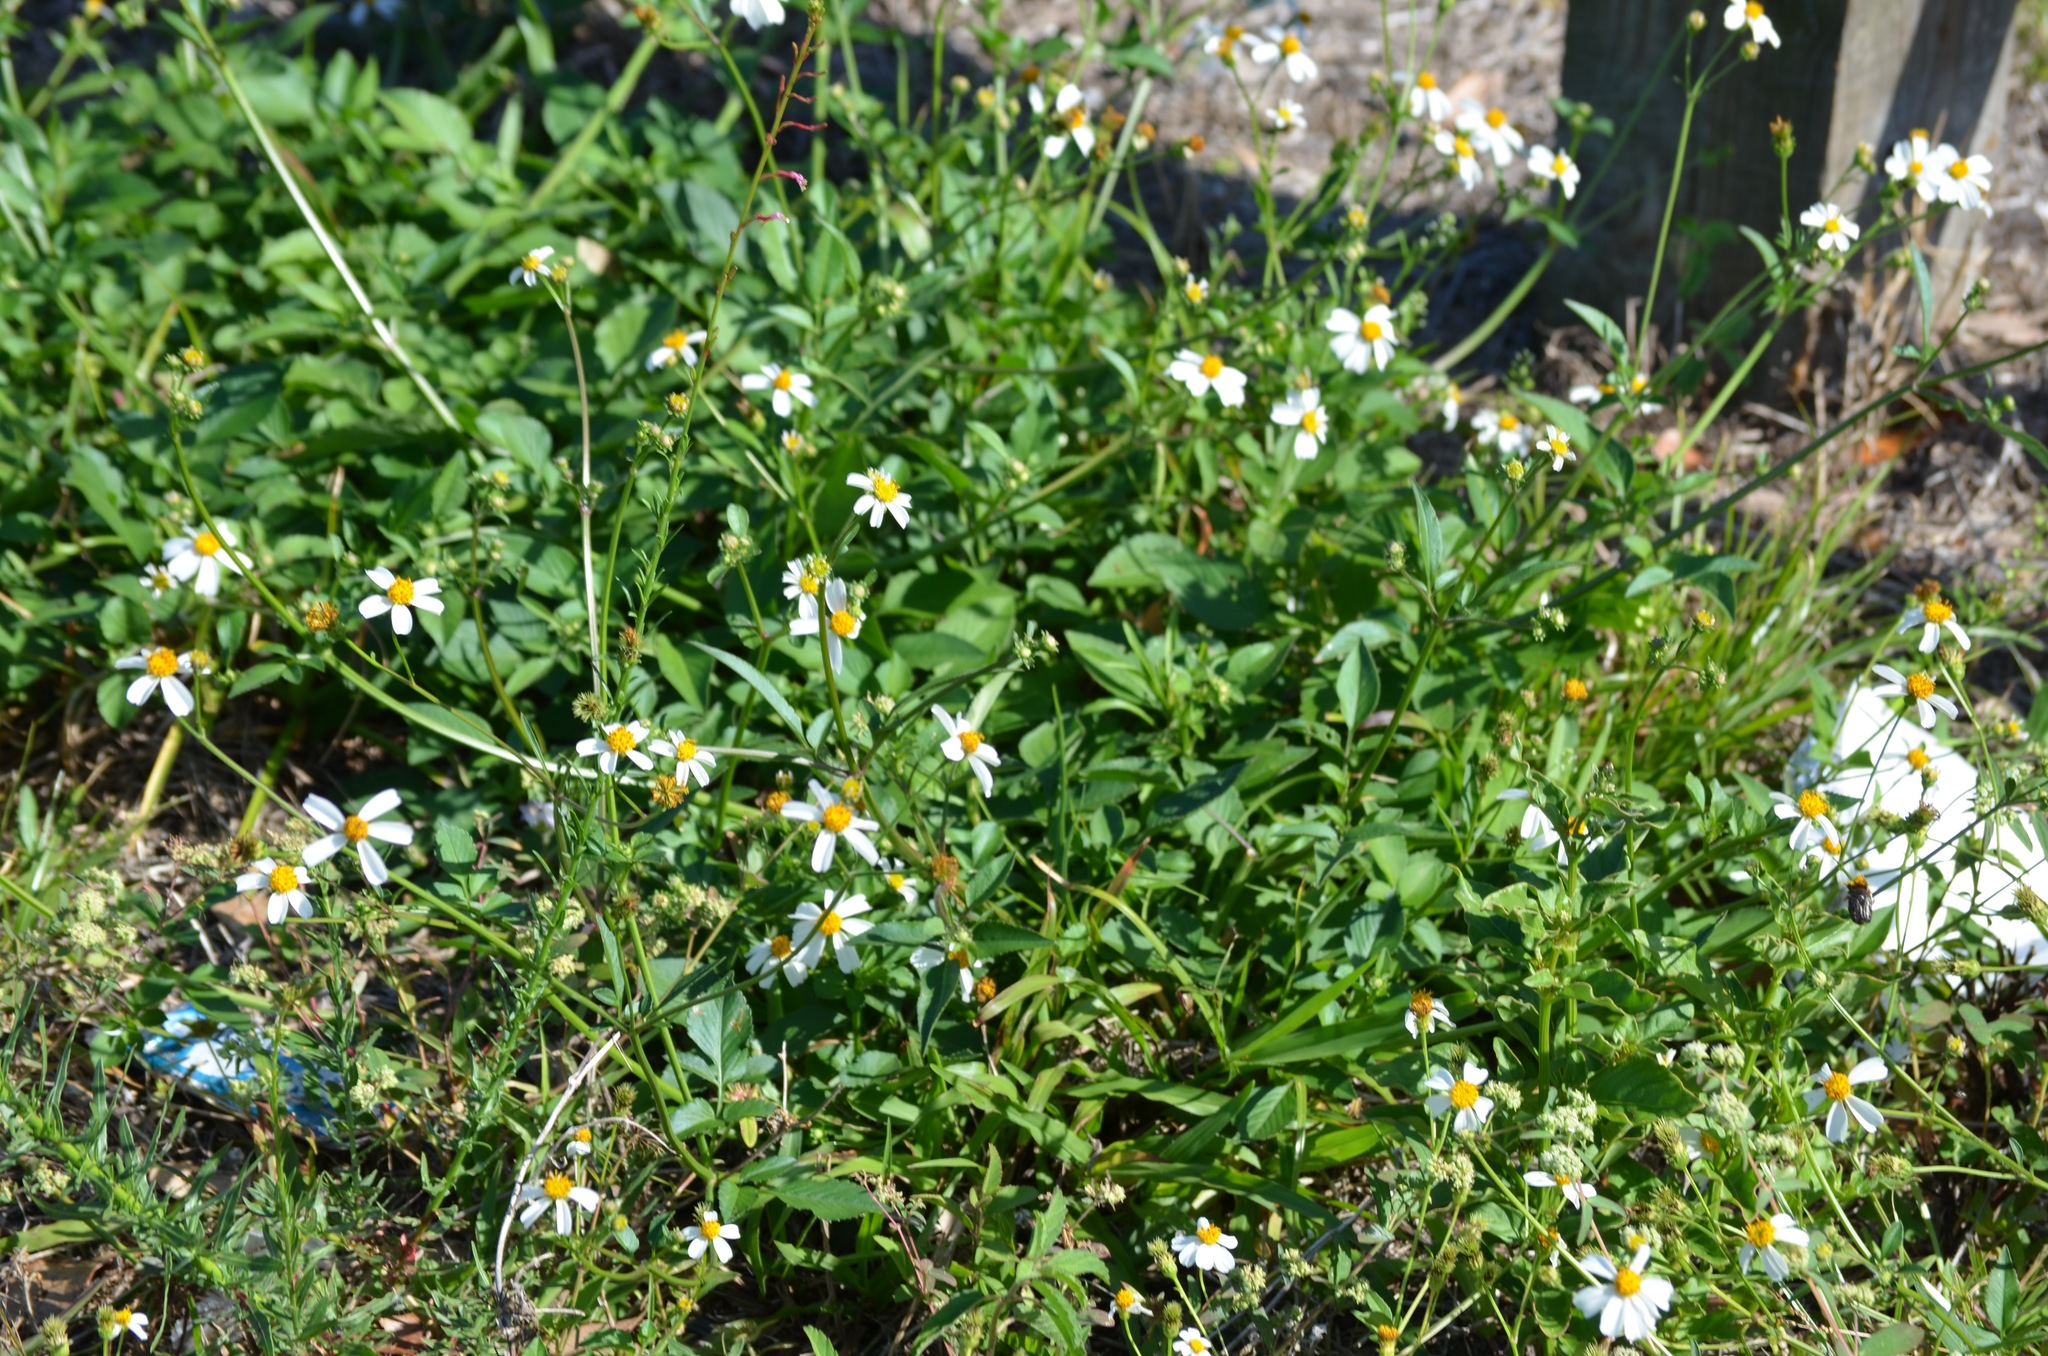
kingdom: Plantae
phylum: Tracheophyta
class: Magnoliopsida
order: Asterales
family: Asteraceae
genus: Bidens
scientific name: Bidens alba
